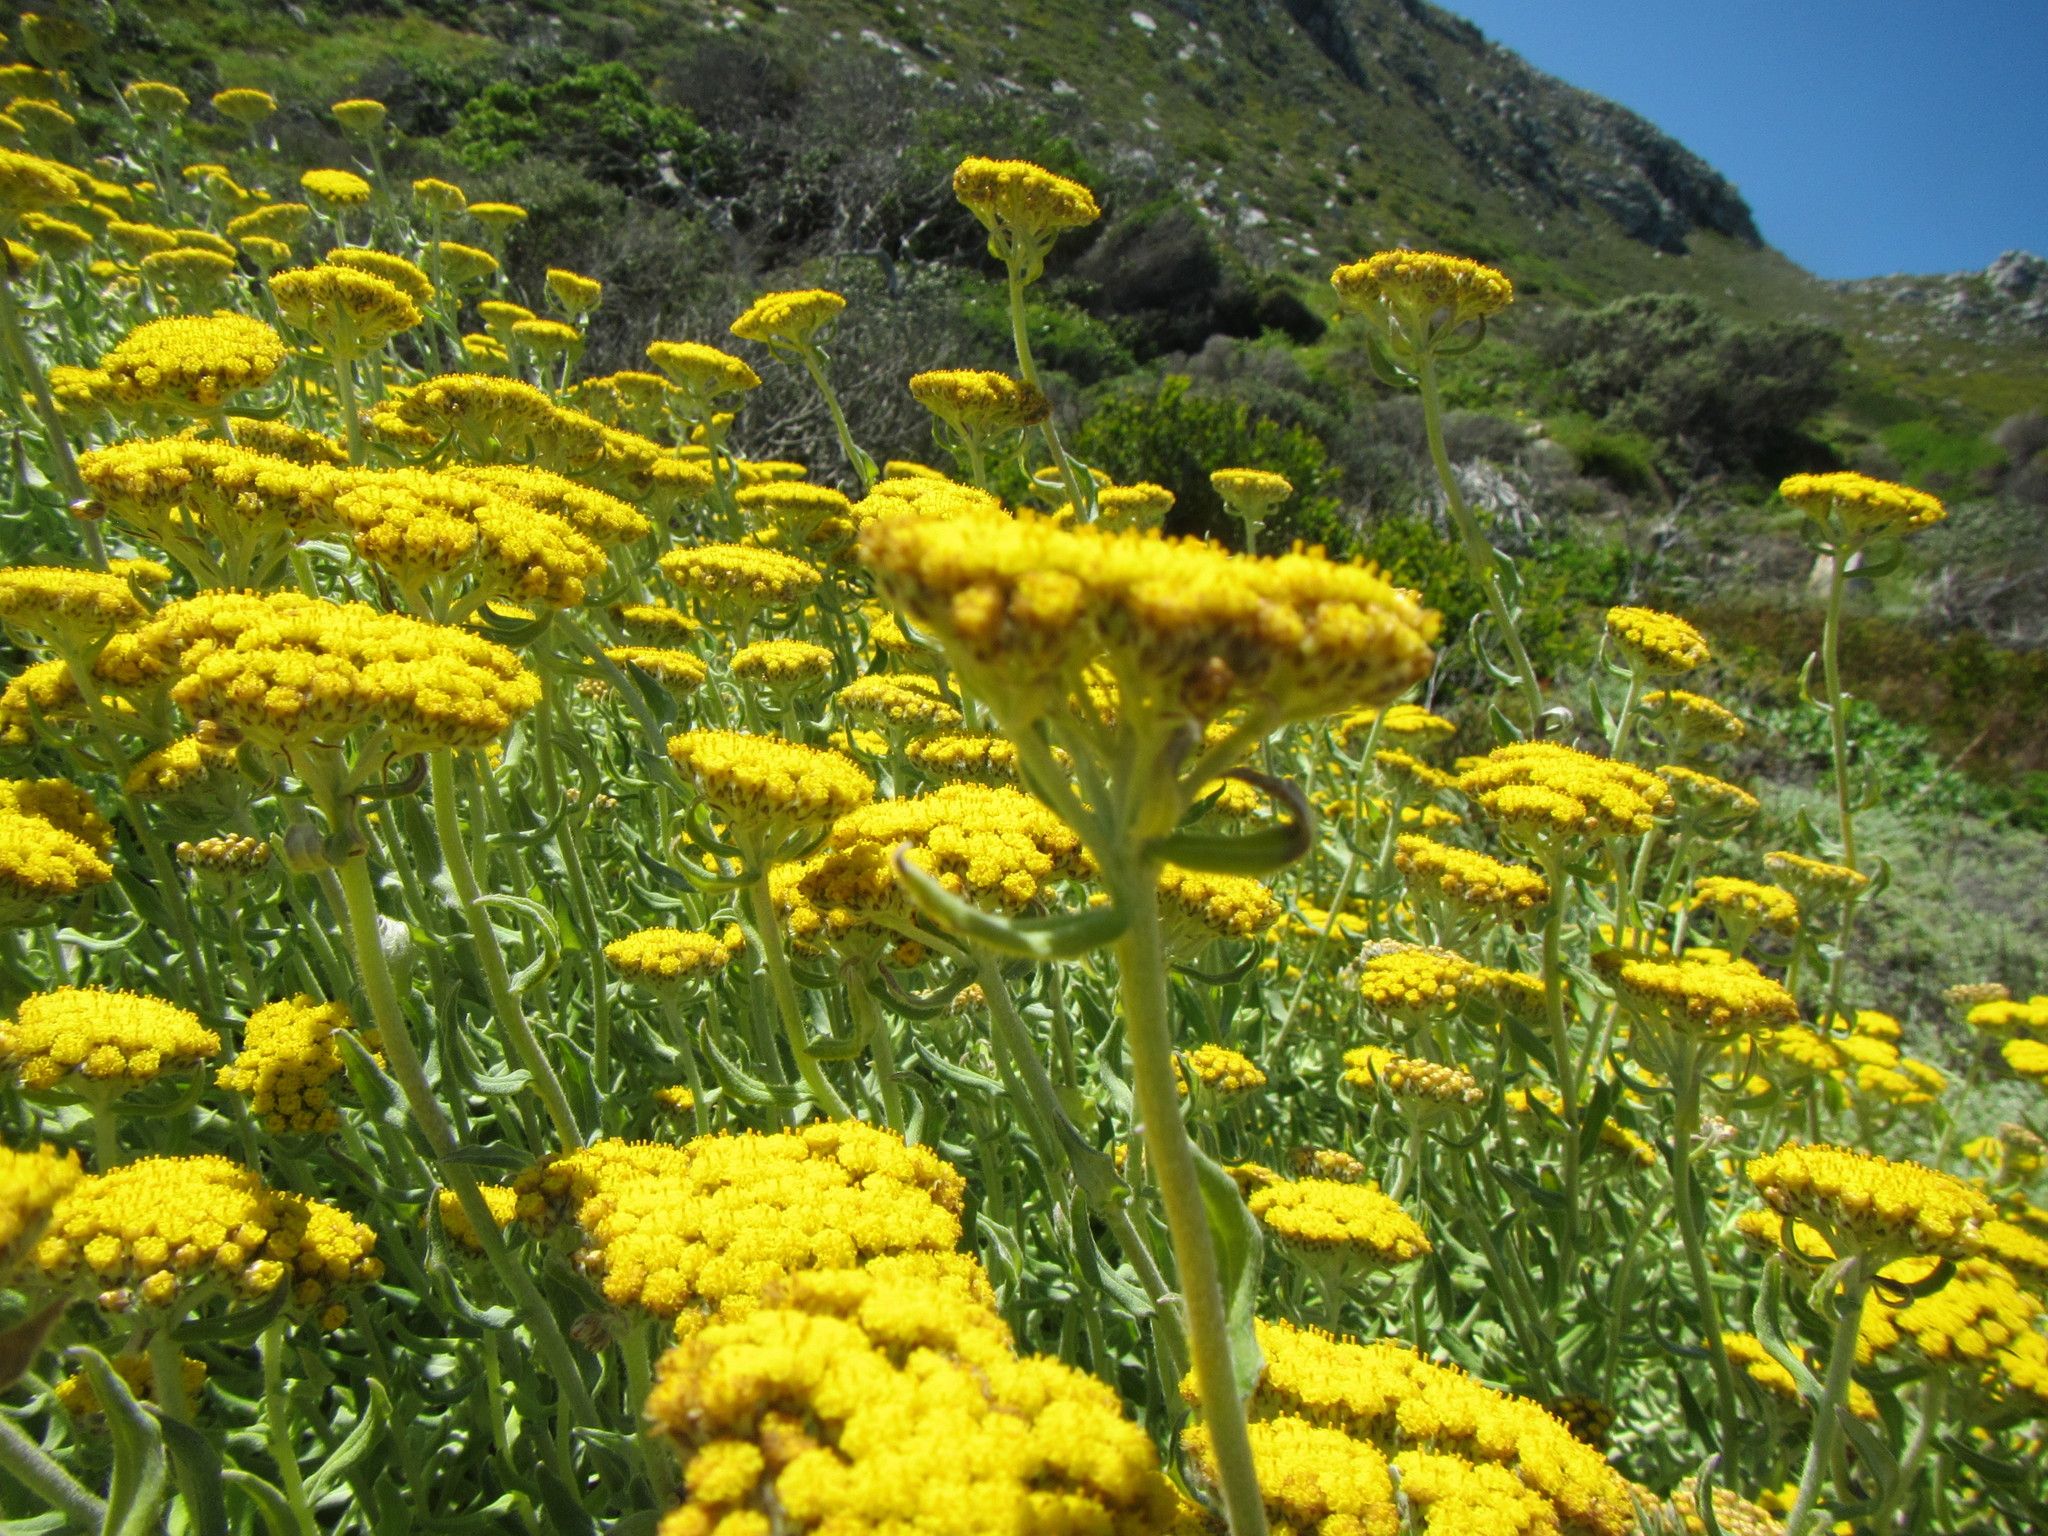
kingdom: Plantae
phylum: Tracheophyta
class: Magnoliopsida
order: Asterales
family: Asteraceae
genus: Helichrysum
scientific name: Helichrysum dasyanthum
